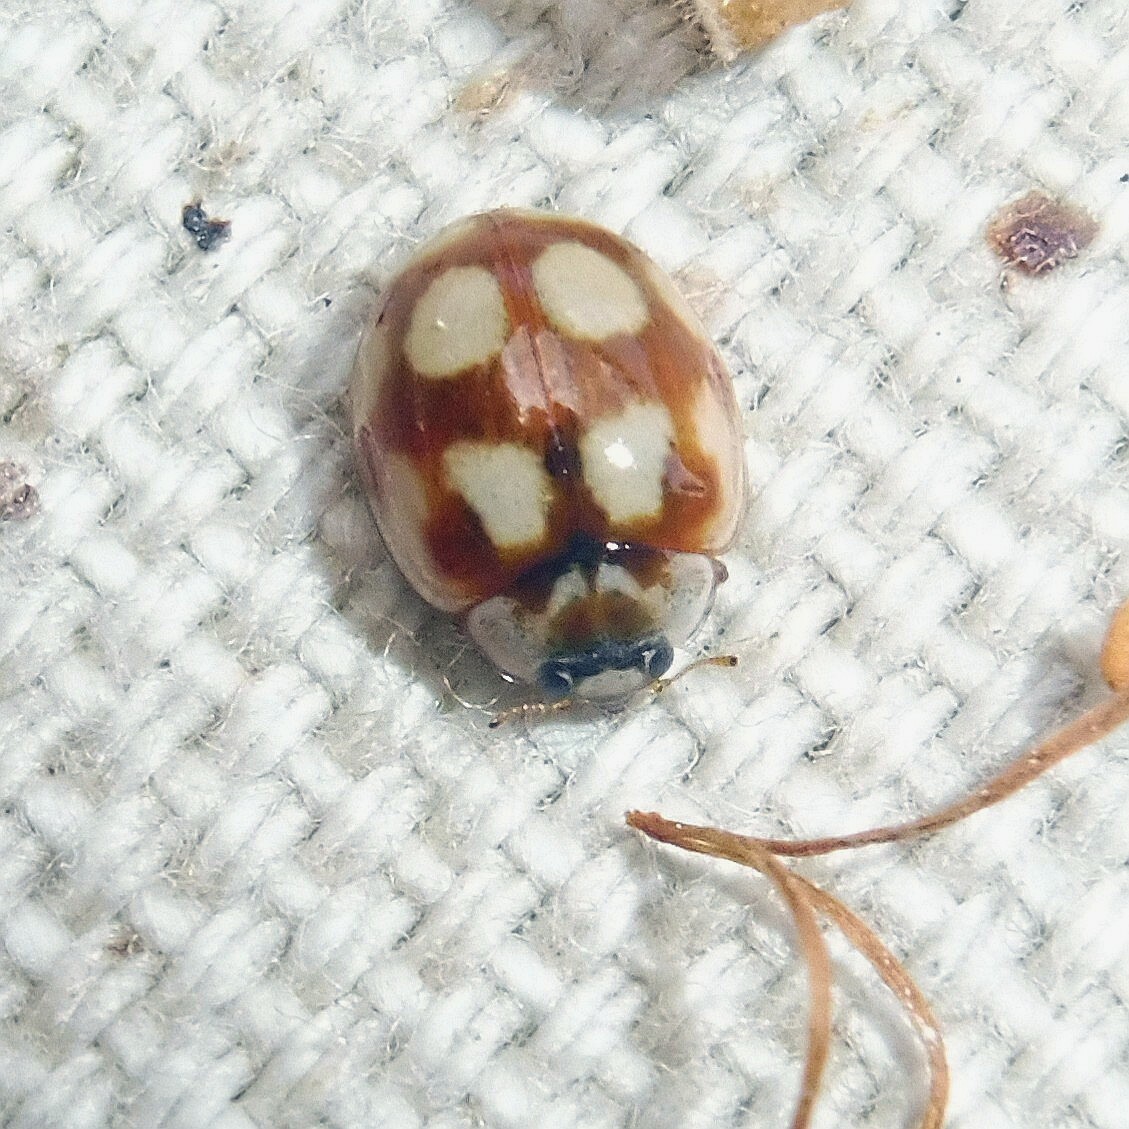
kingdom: Animalia
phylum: Arthropoda
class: Insecta
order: Coleoptera
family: Coccinellidae
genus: Adalia
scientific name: Adalia decempunctata
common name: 10-spot ladybird
